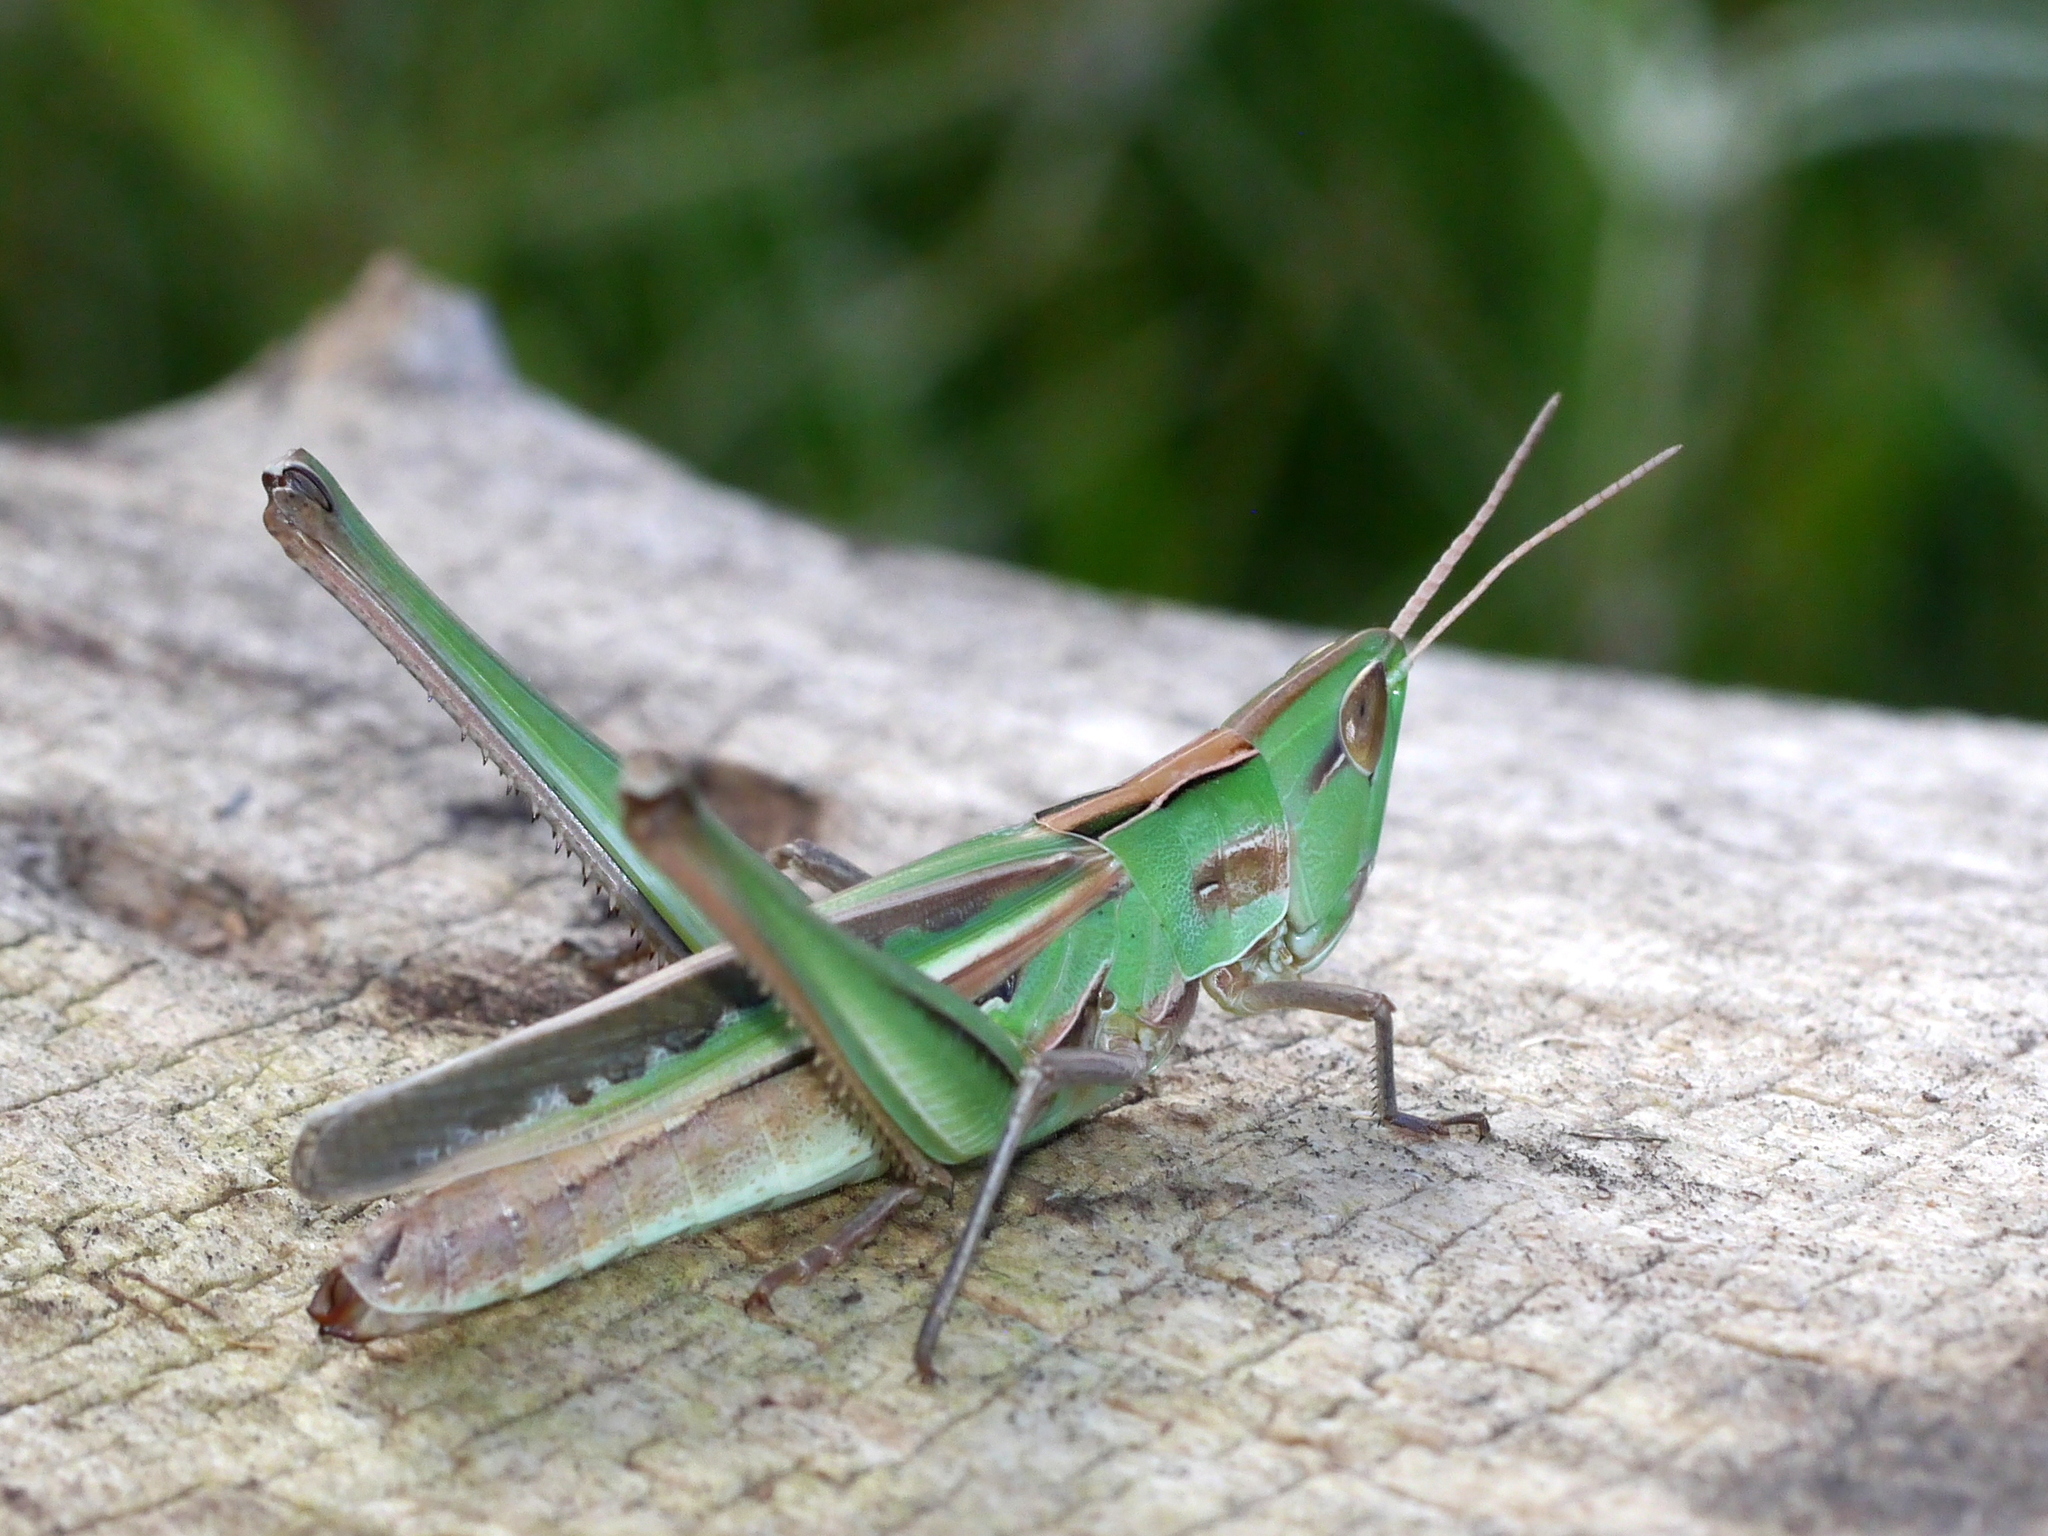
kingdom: Animalia
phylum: Arthropoda
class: Insecta
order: Orthoptera
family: Acrididae
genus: Syrbula
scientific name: Syrbula montezuma
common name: Montezuma's grasshopper
